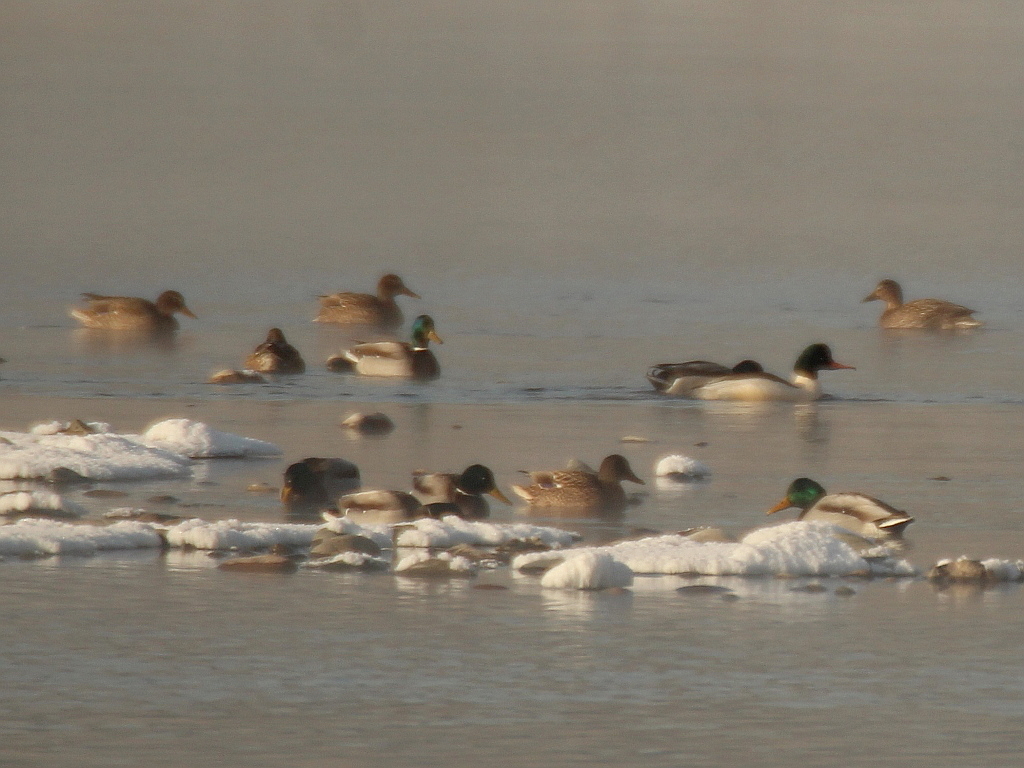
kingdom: Animalia
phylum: Chordata
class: Aves
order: Anseriformes
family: Anatidae
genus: Anas
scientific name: Anas platyrhynchos
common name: Mallard
